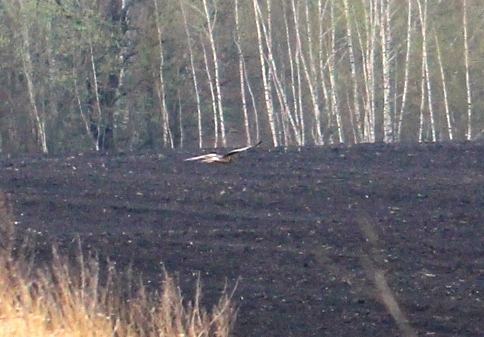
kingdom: Animalia
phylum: Chordata
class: Aves
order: Accipitriformes
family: Accipitridae
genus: Circus
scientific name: Circus aeruginosus
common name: Western marsh harrier
